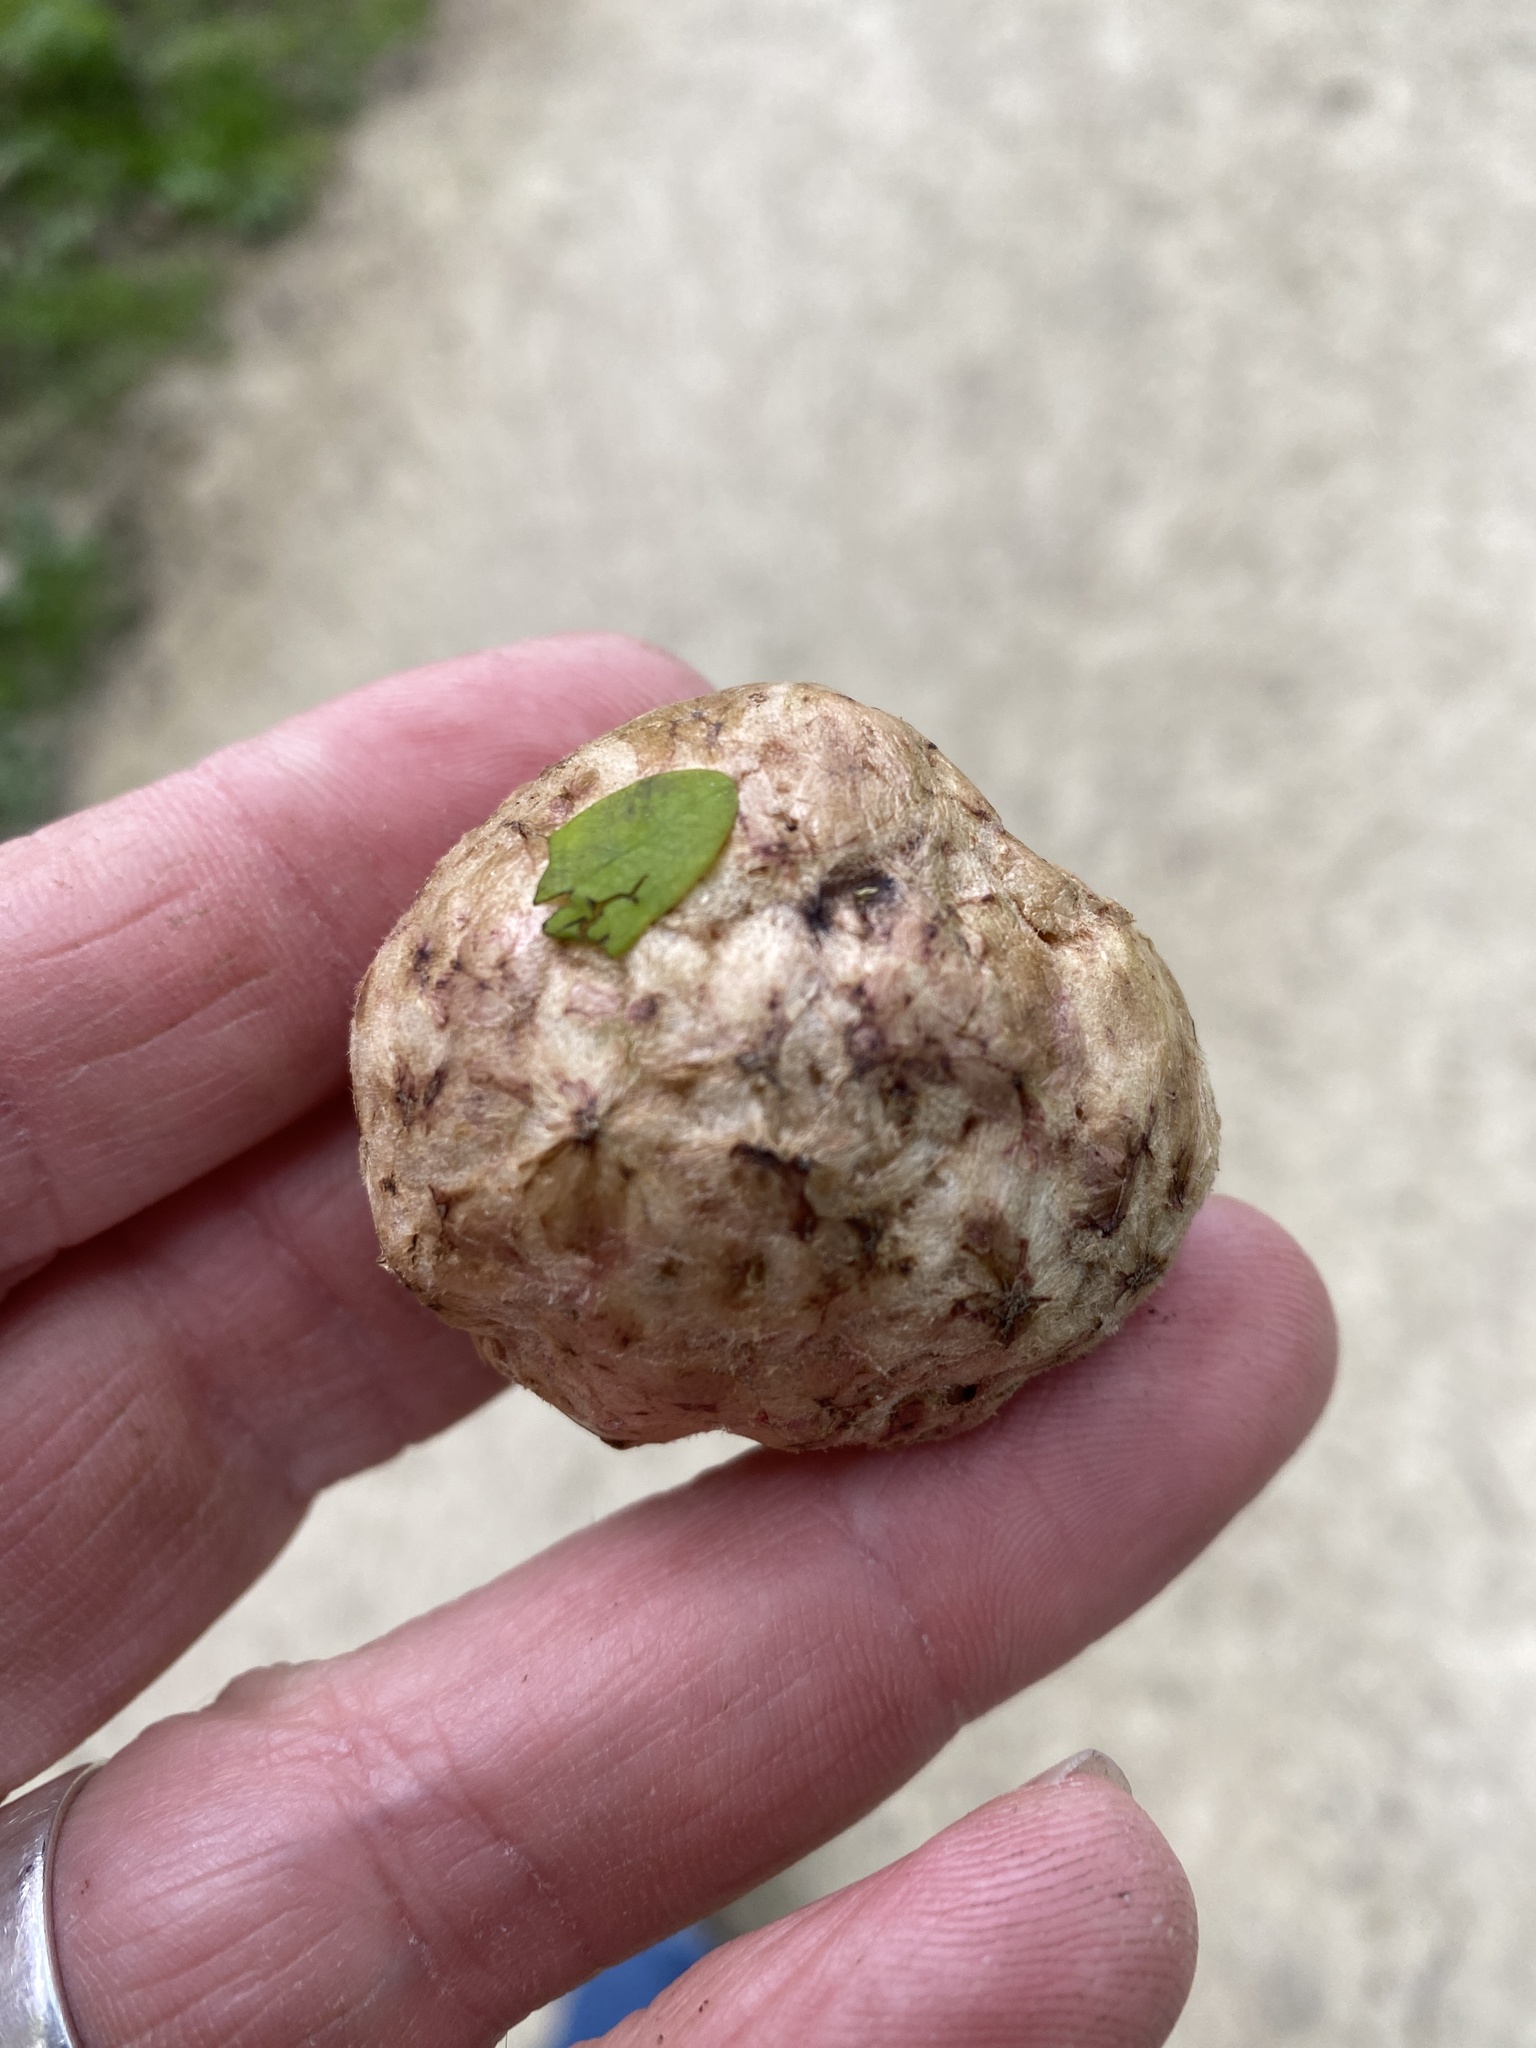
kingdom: Animalia
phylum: Arthropoda
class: Insecta
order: Hymenoptera
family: Cynipidae
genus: Biorhiza
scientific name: Biorhiza pallida
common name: Oak apple
